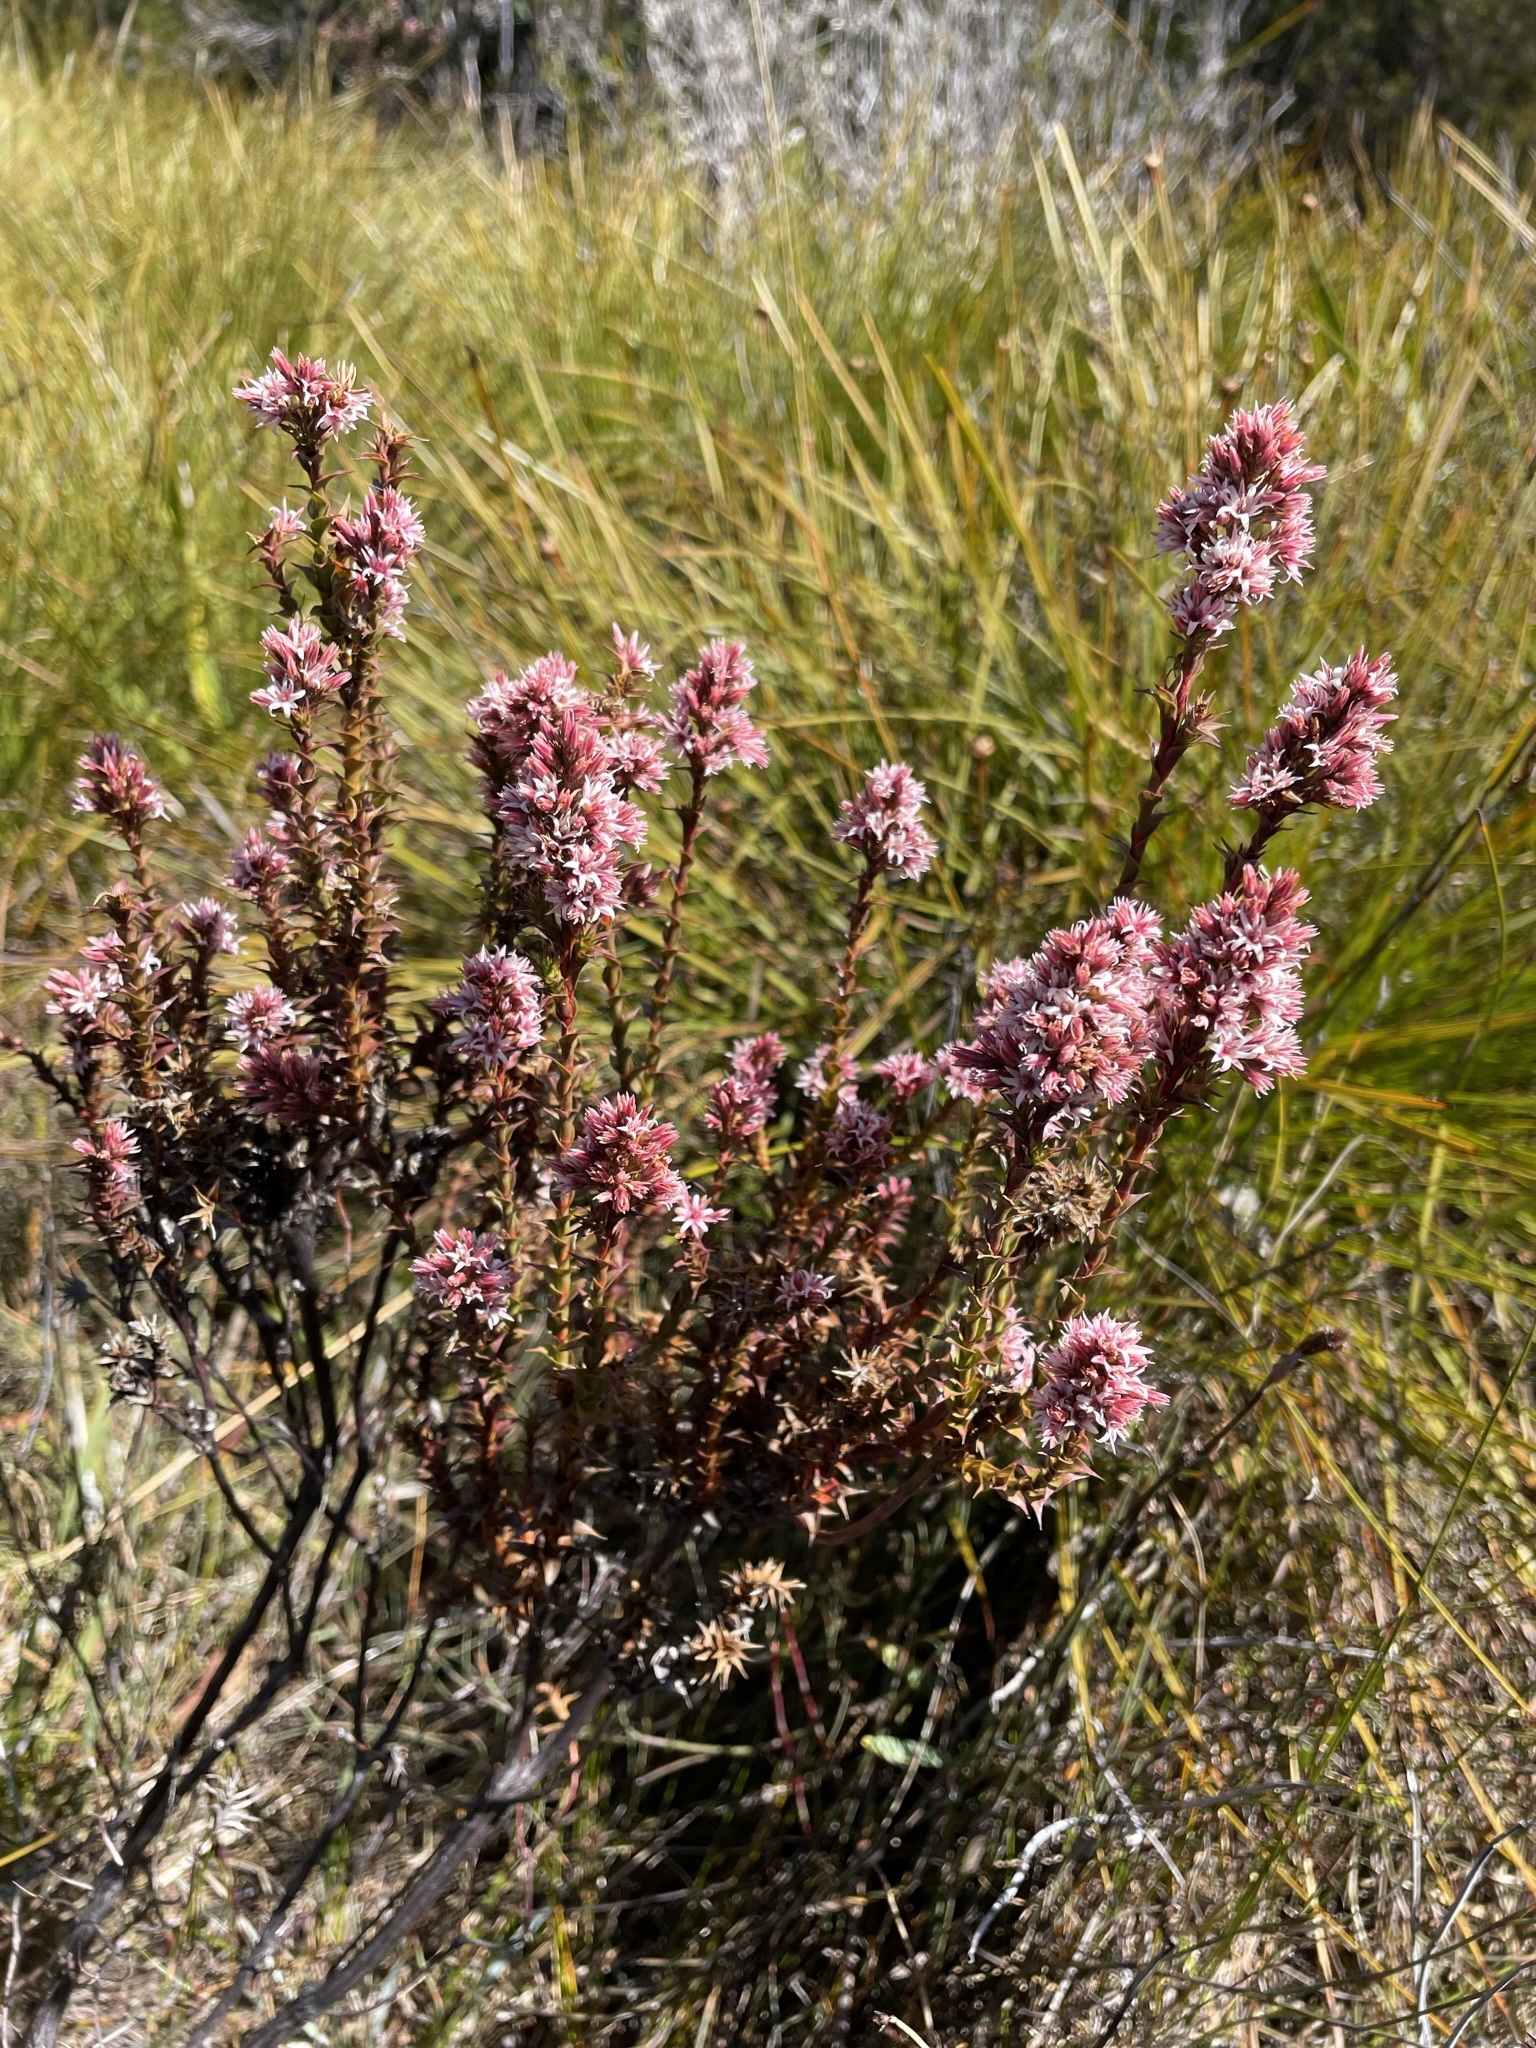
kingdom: Plantae
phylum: Tracheophyta
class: Magnoliopsida
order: Ericales
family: Ericaceae
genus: Sprengelia
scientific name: Sprengelia incarnata
